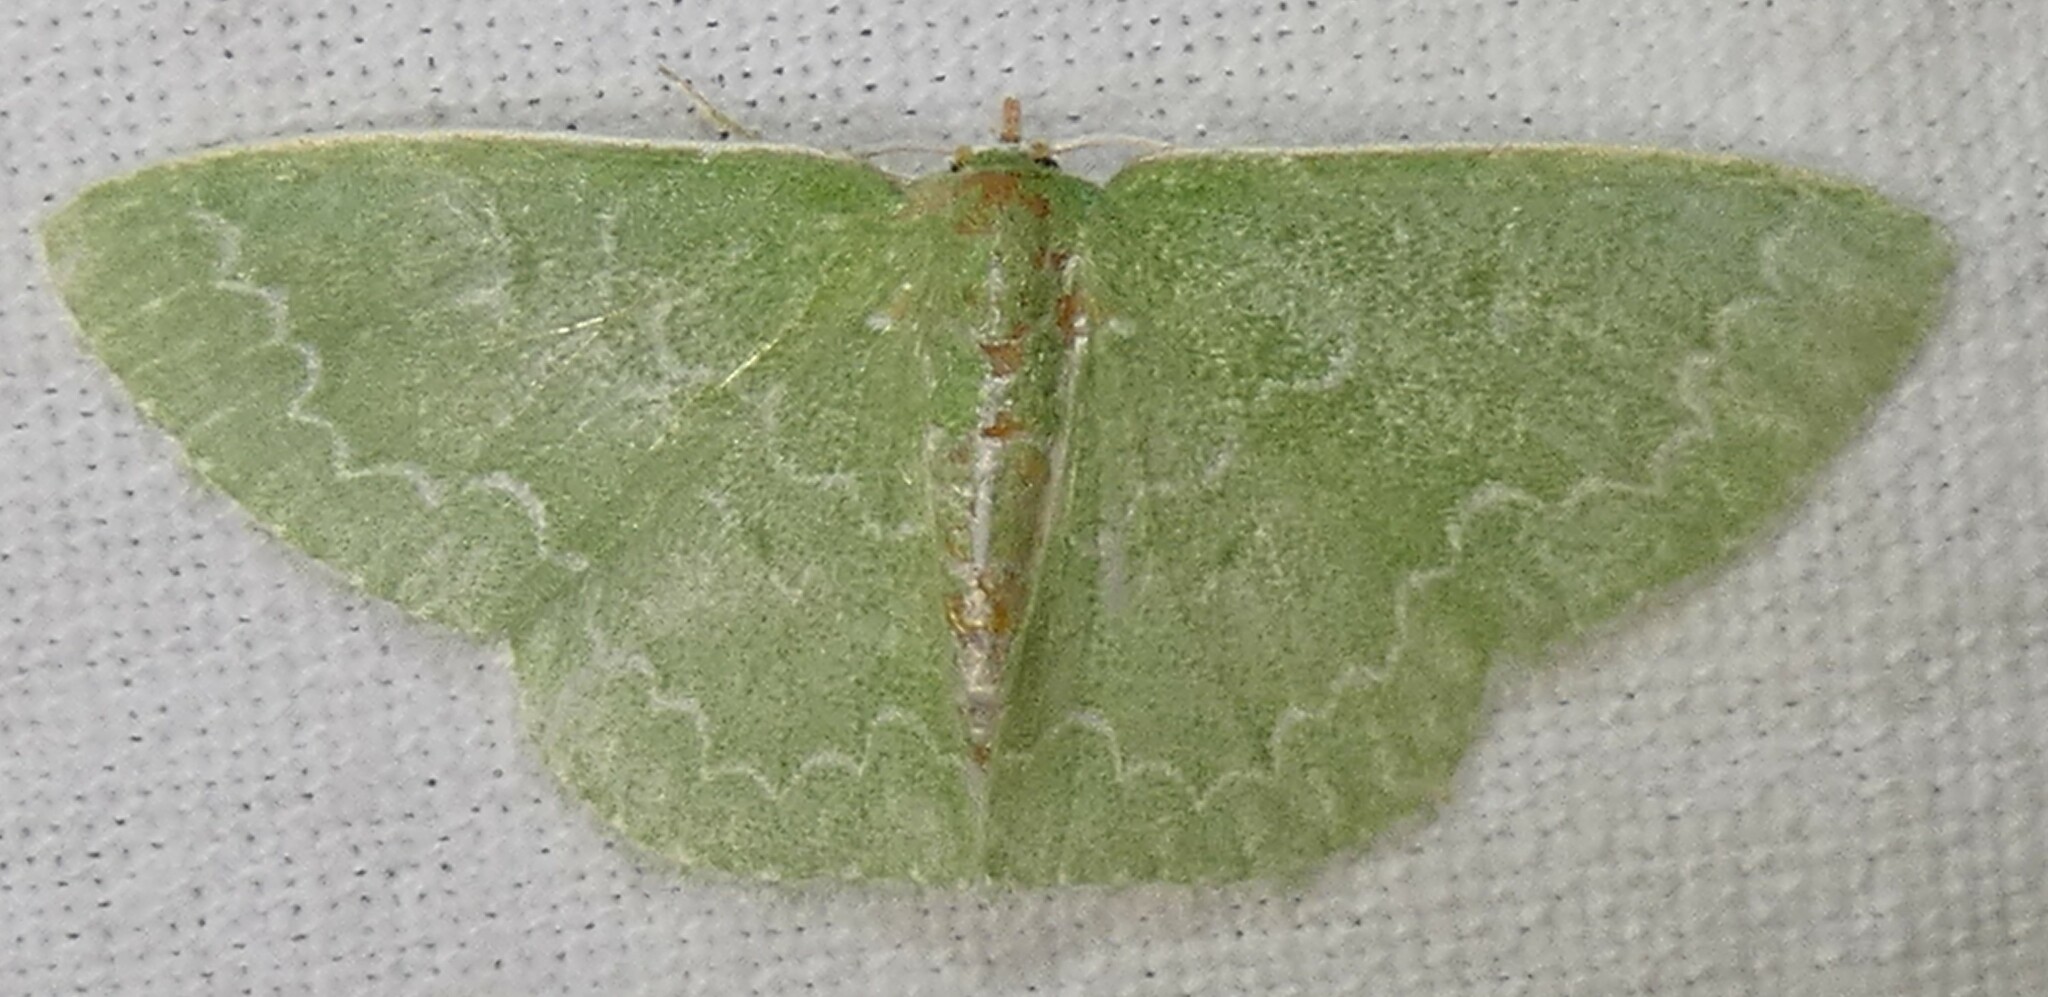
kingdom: Animalia
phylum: Arthropoda
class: Insecta
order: Lepidoptera
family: Geometridae
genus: Synchlora
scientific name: Synchlora frondaria
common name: Southern emerald
